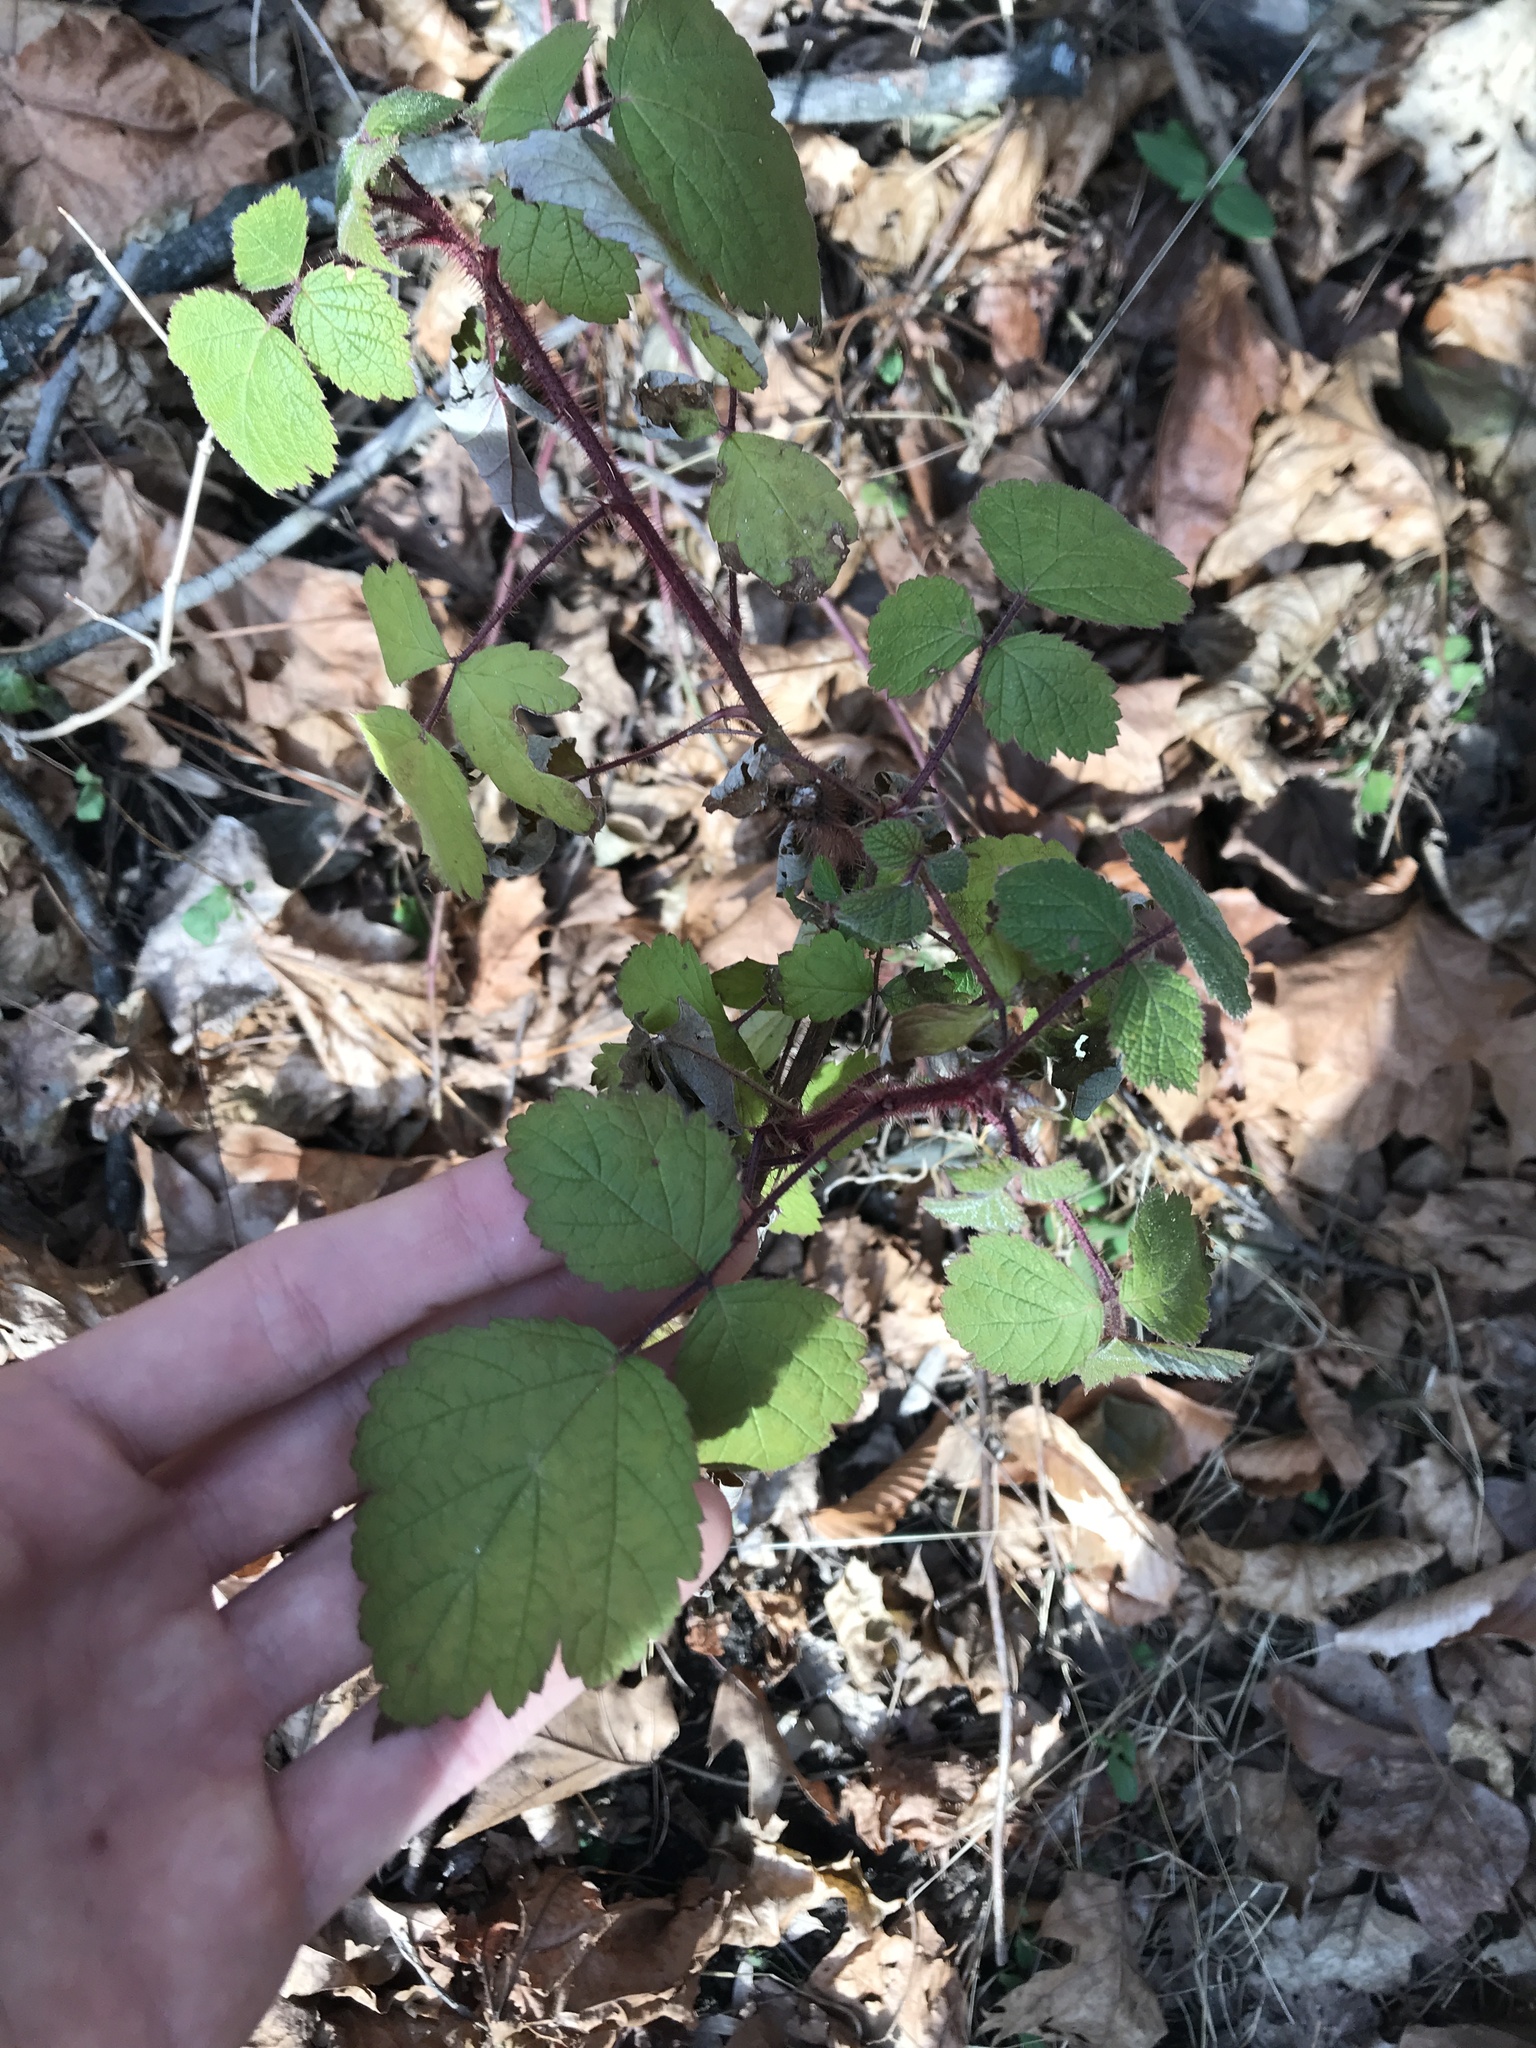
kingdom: Plantae
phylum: Tracheophyta
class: Magnoliopsida
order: Rosales
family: Rosaceae
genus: Rubus
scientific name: Rubus phoenicolasius
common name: Japanese wineberry
